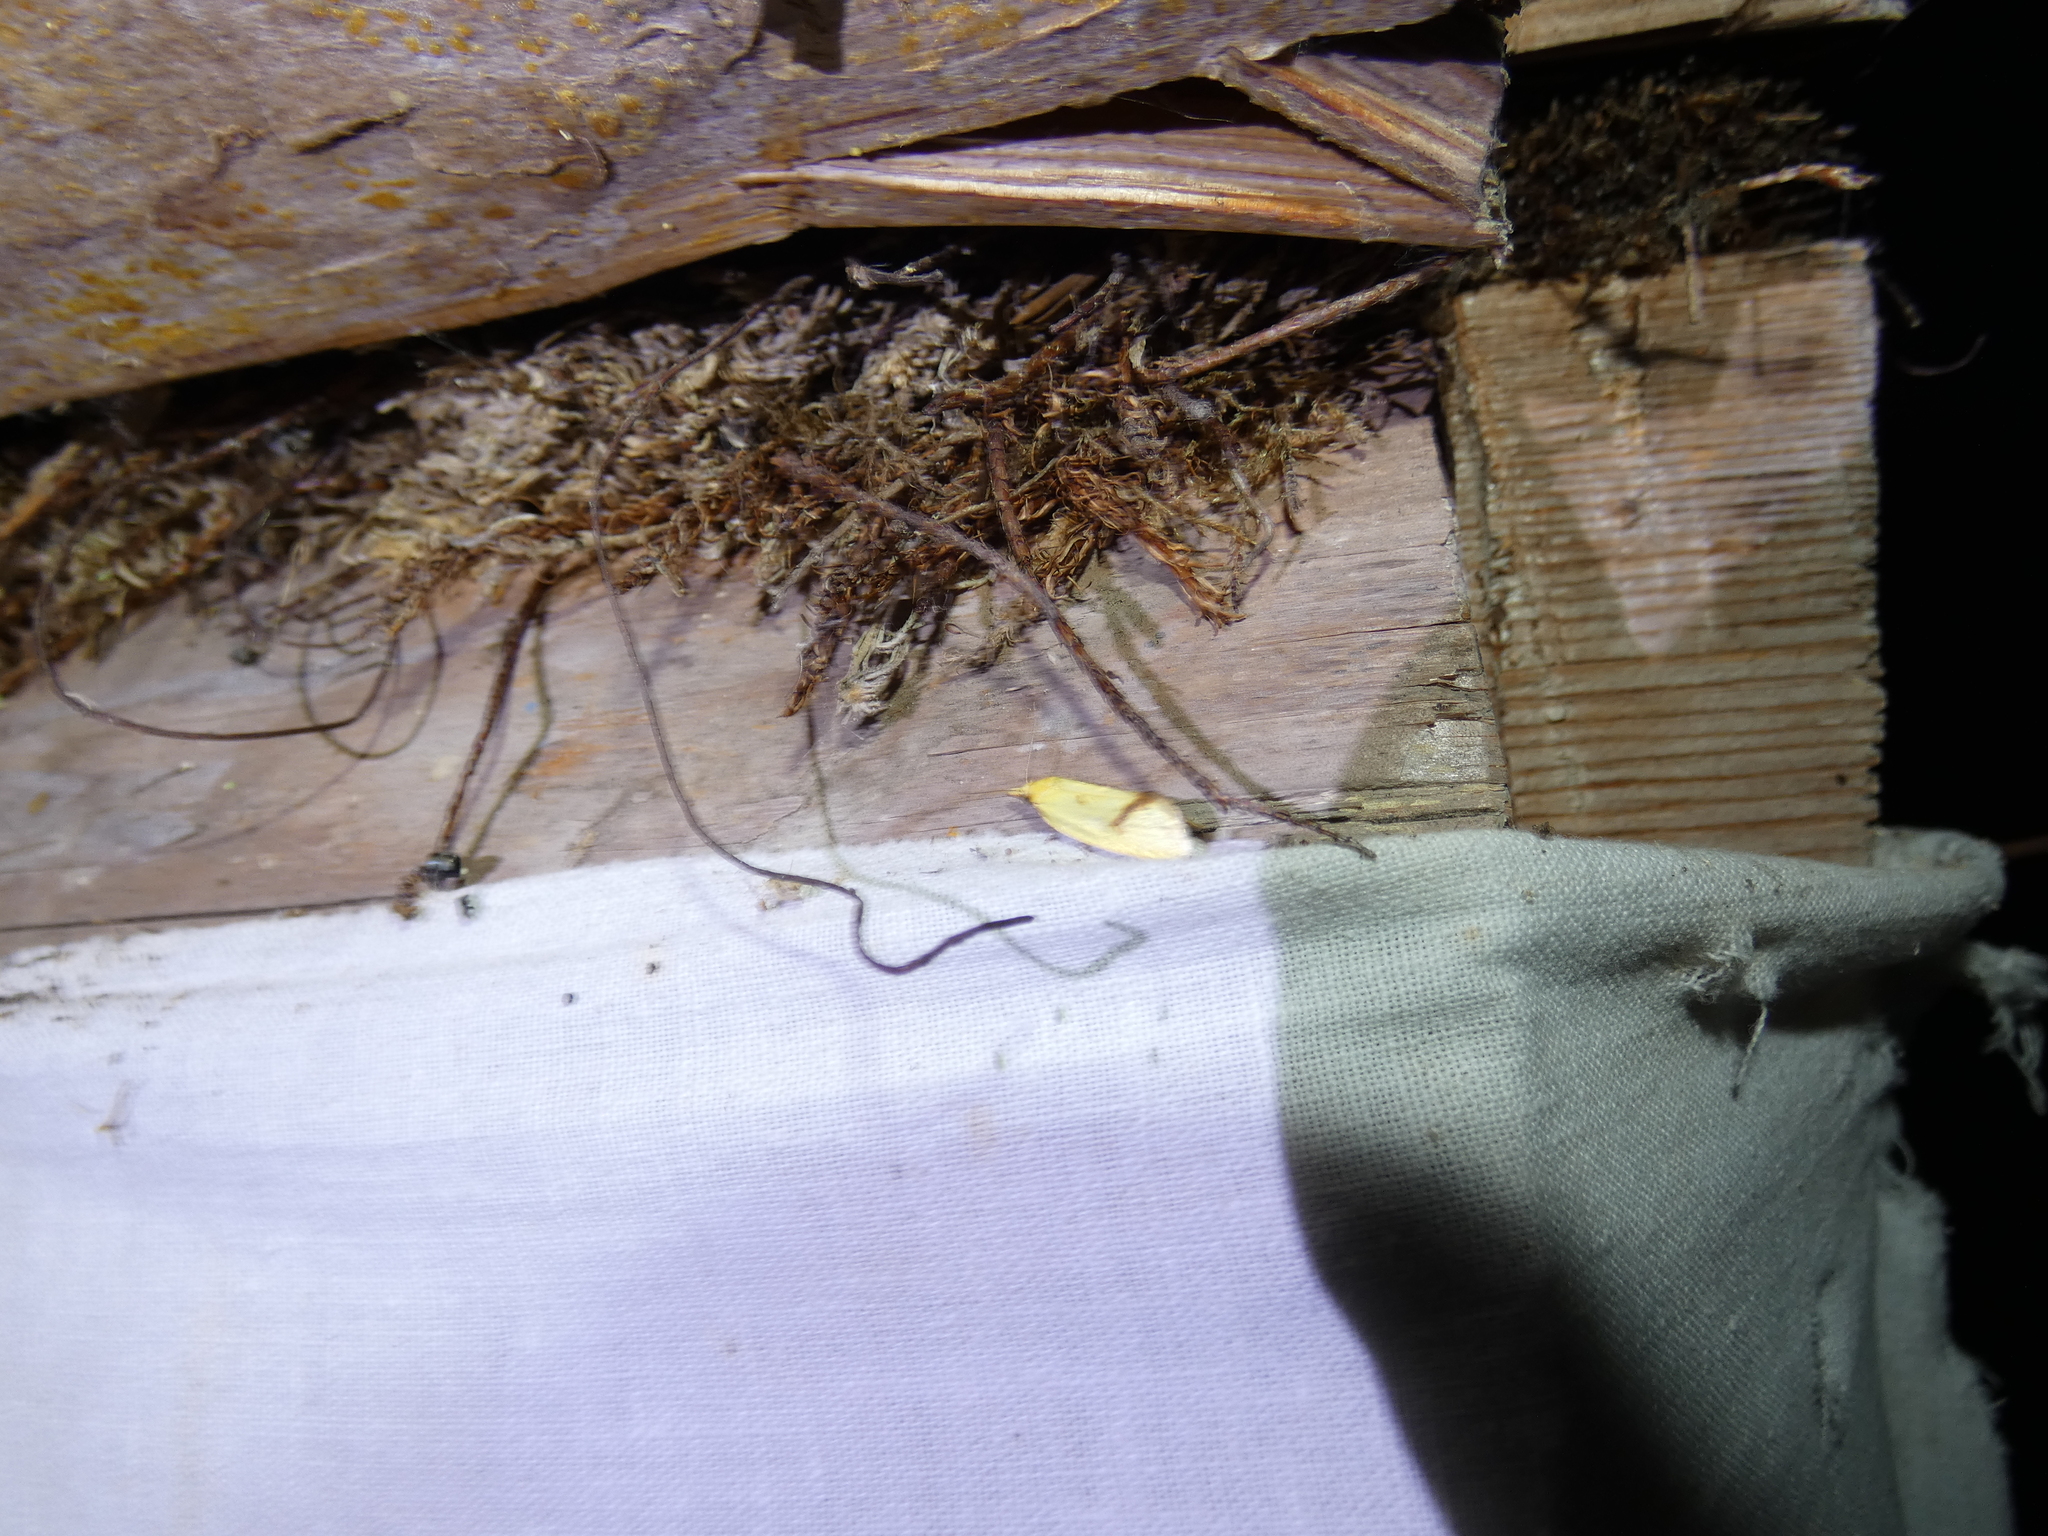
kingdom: Animalia
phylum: Arthropoda
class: Insecta
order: Lepidoptera
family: Tortricidae
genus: Agapeta
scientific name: Agapeta hamana
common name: Common yellow conch
